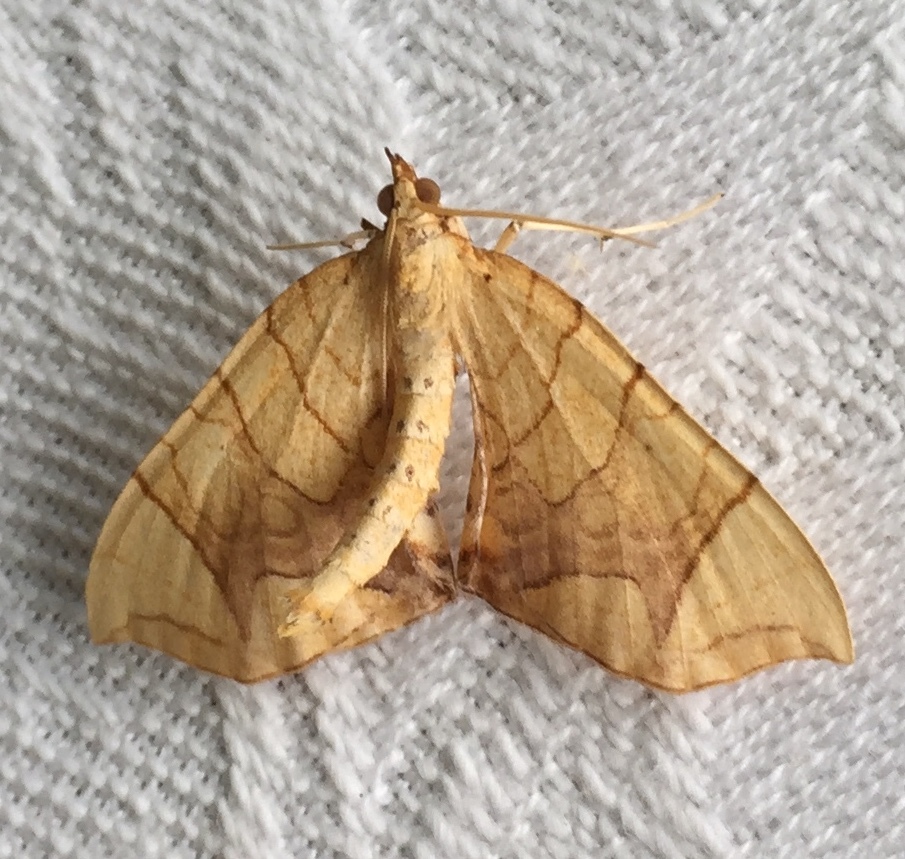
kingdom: Animalia
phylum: Arthropoda
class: Insecta
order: Lepidoptera
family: Geometridae
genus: Eulithis
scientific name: Eulithis
